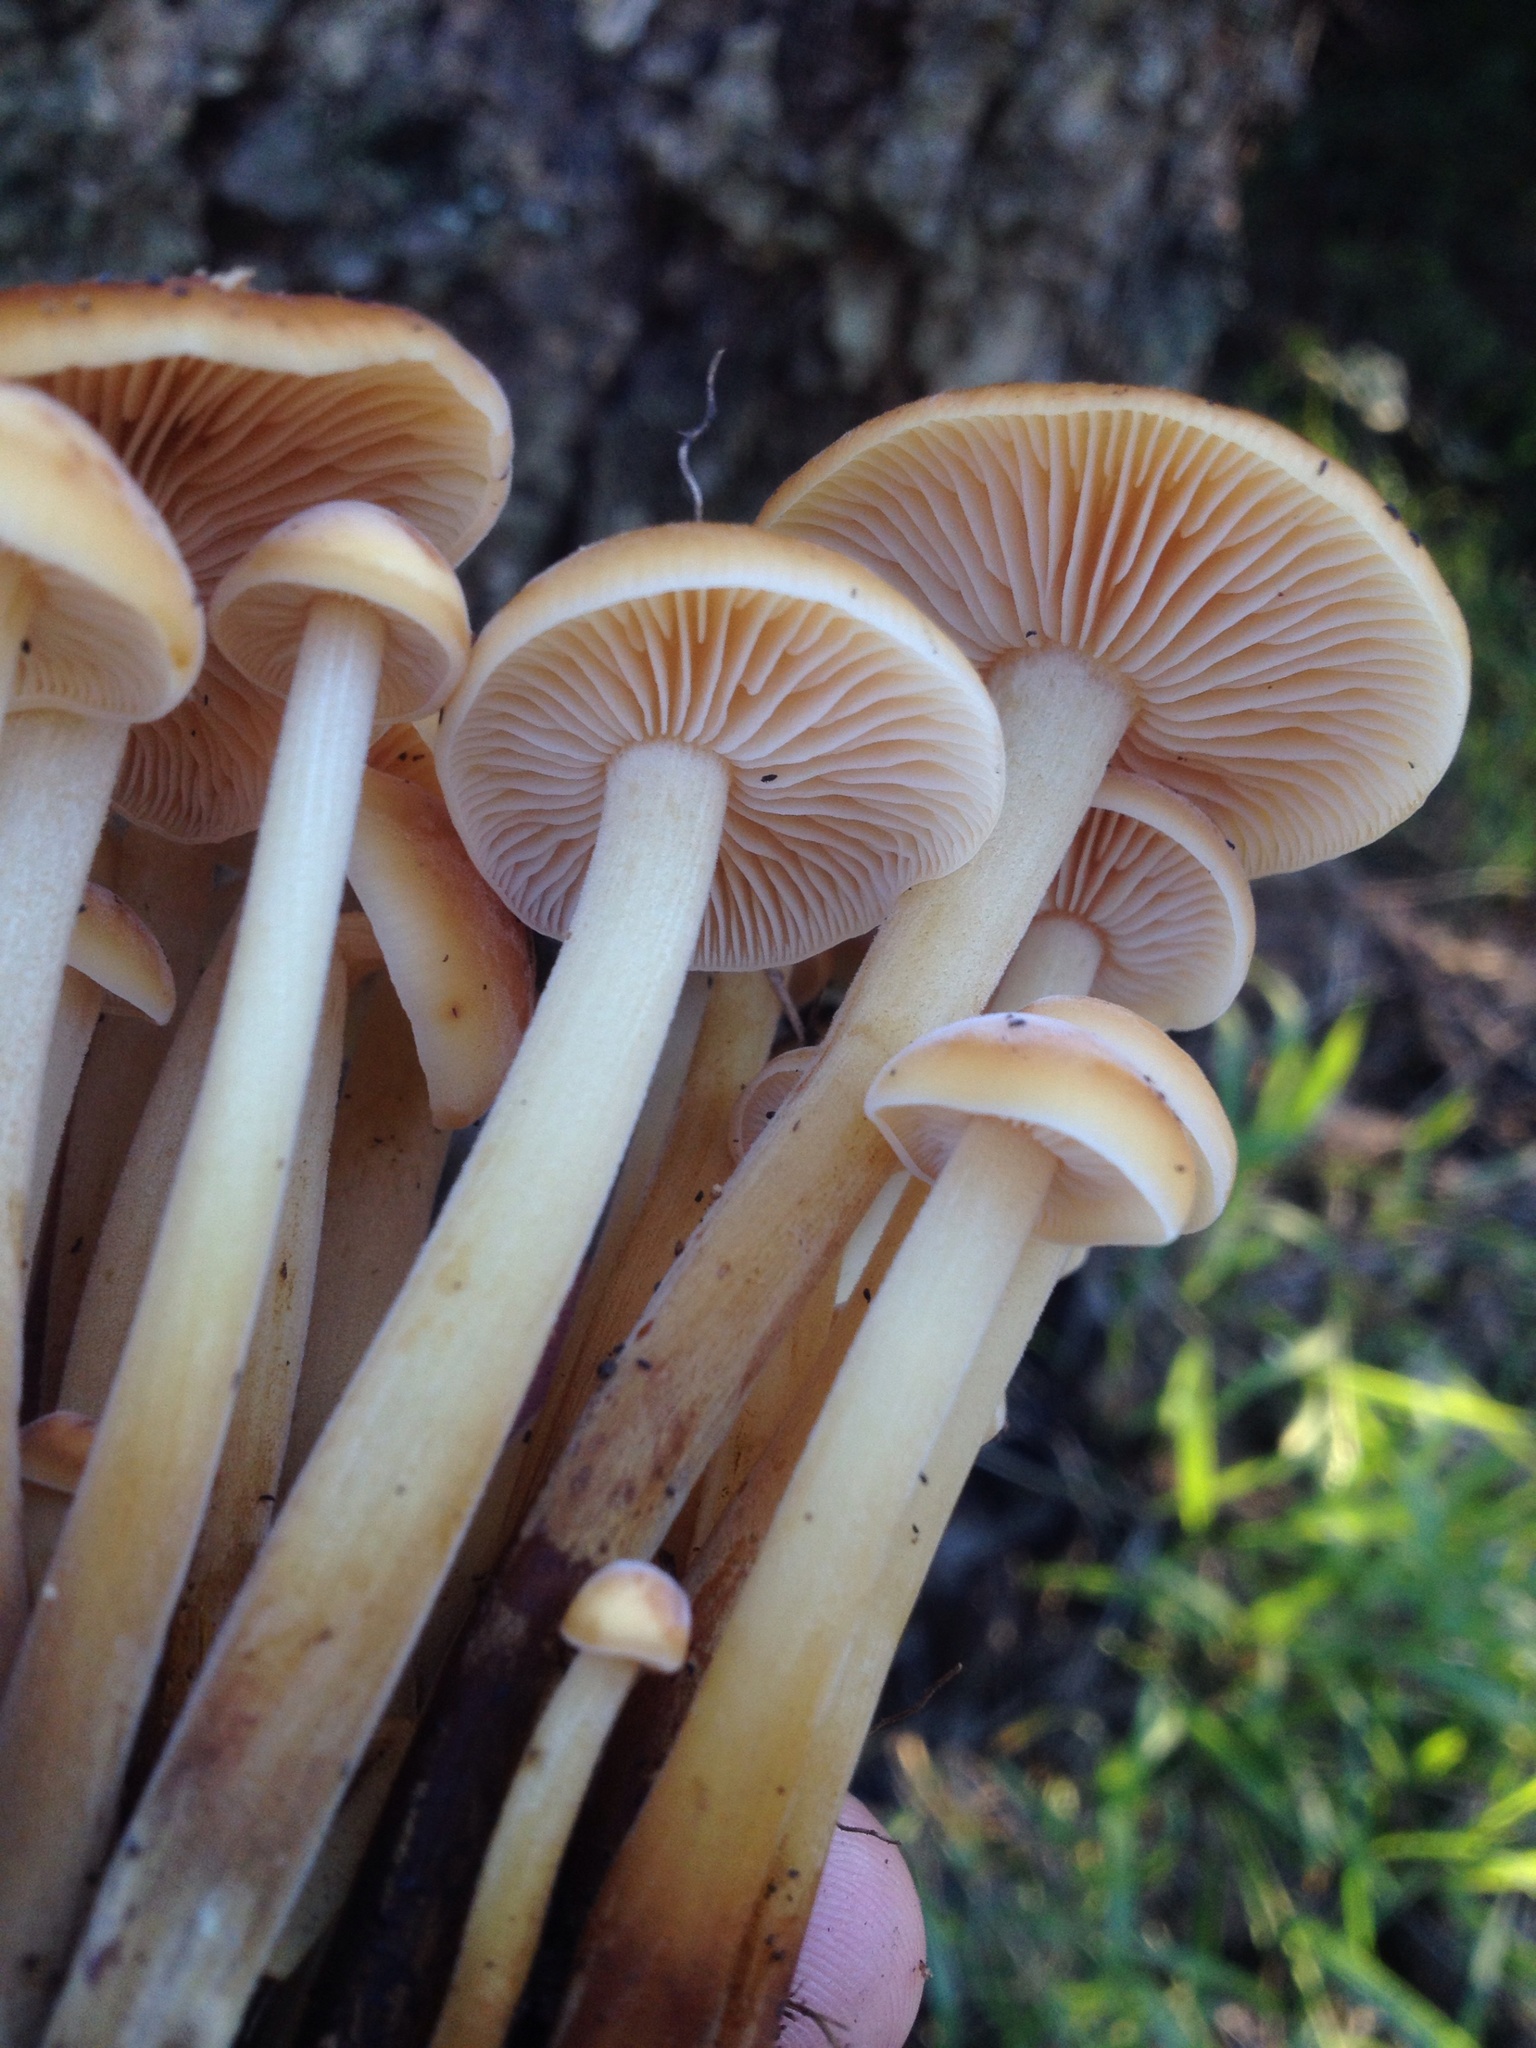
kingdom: Fungi
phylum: Basidiomycota
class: Agaricomycetes
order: Agaricales
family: Physalacriaceae
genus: Flammulina
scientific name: Flammulina velutipes
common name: Velvet shank
